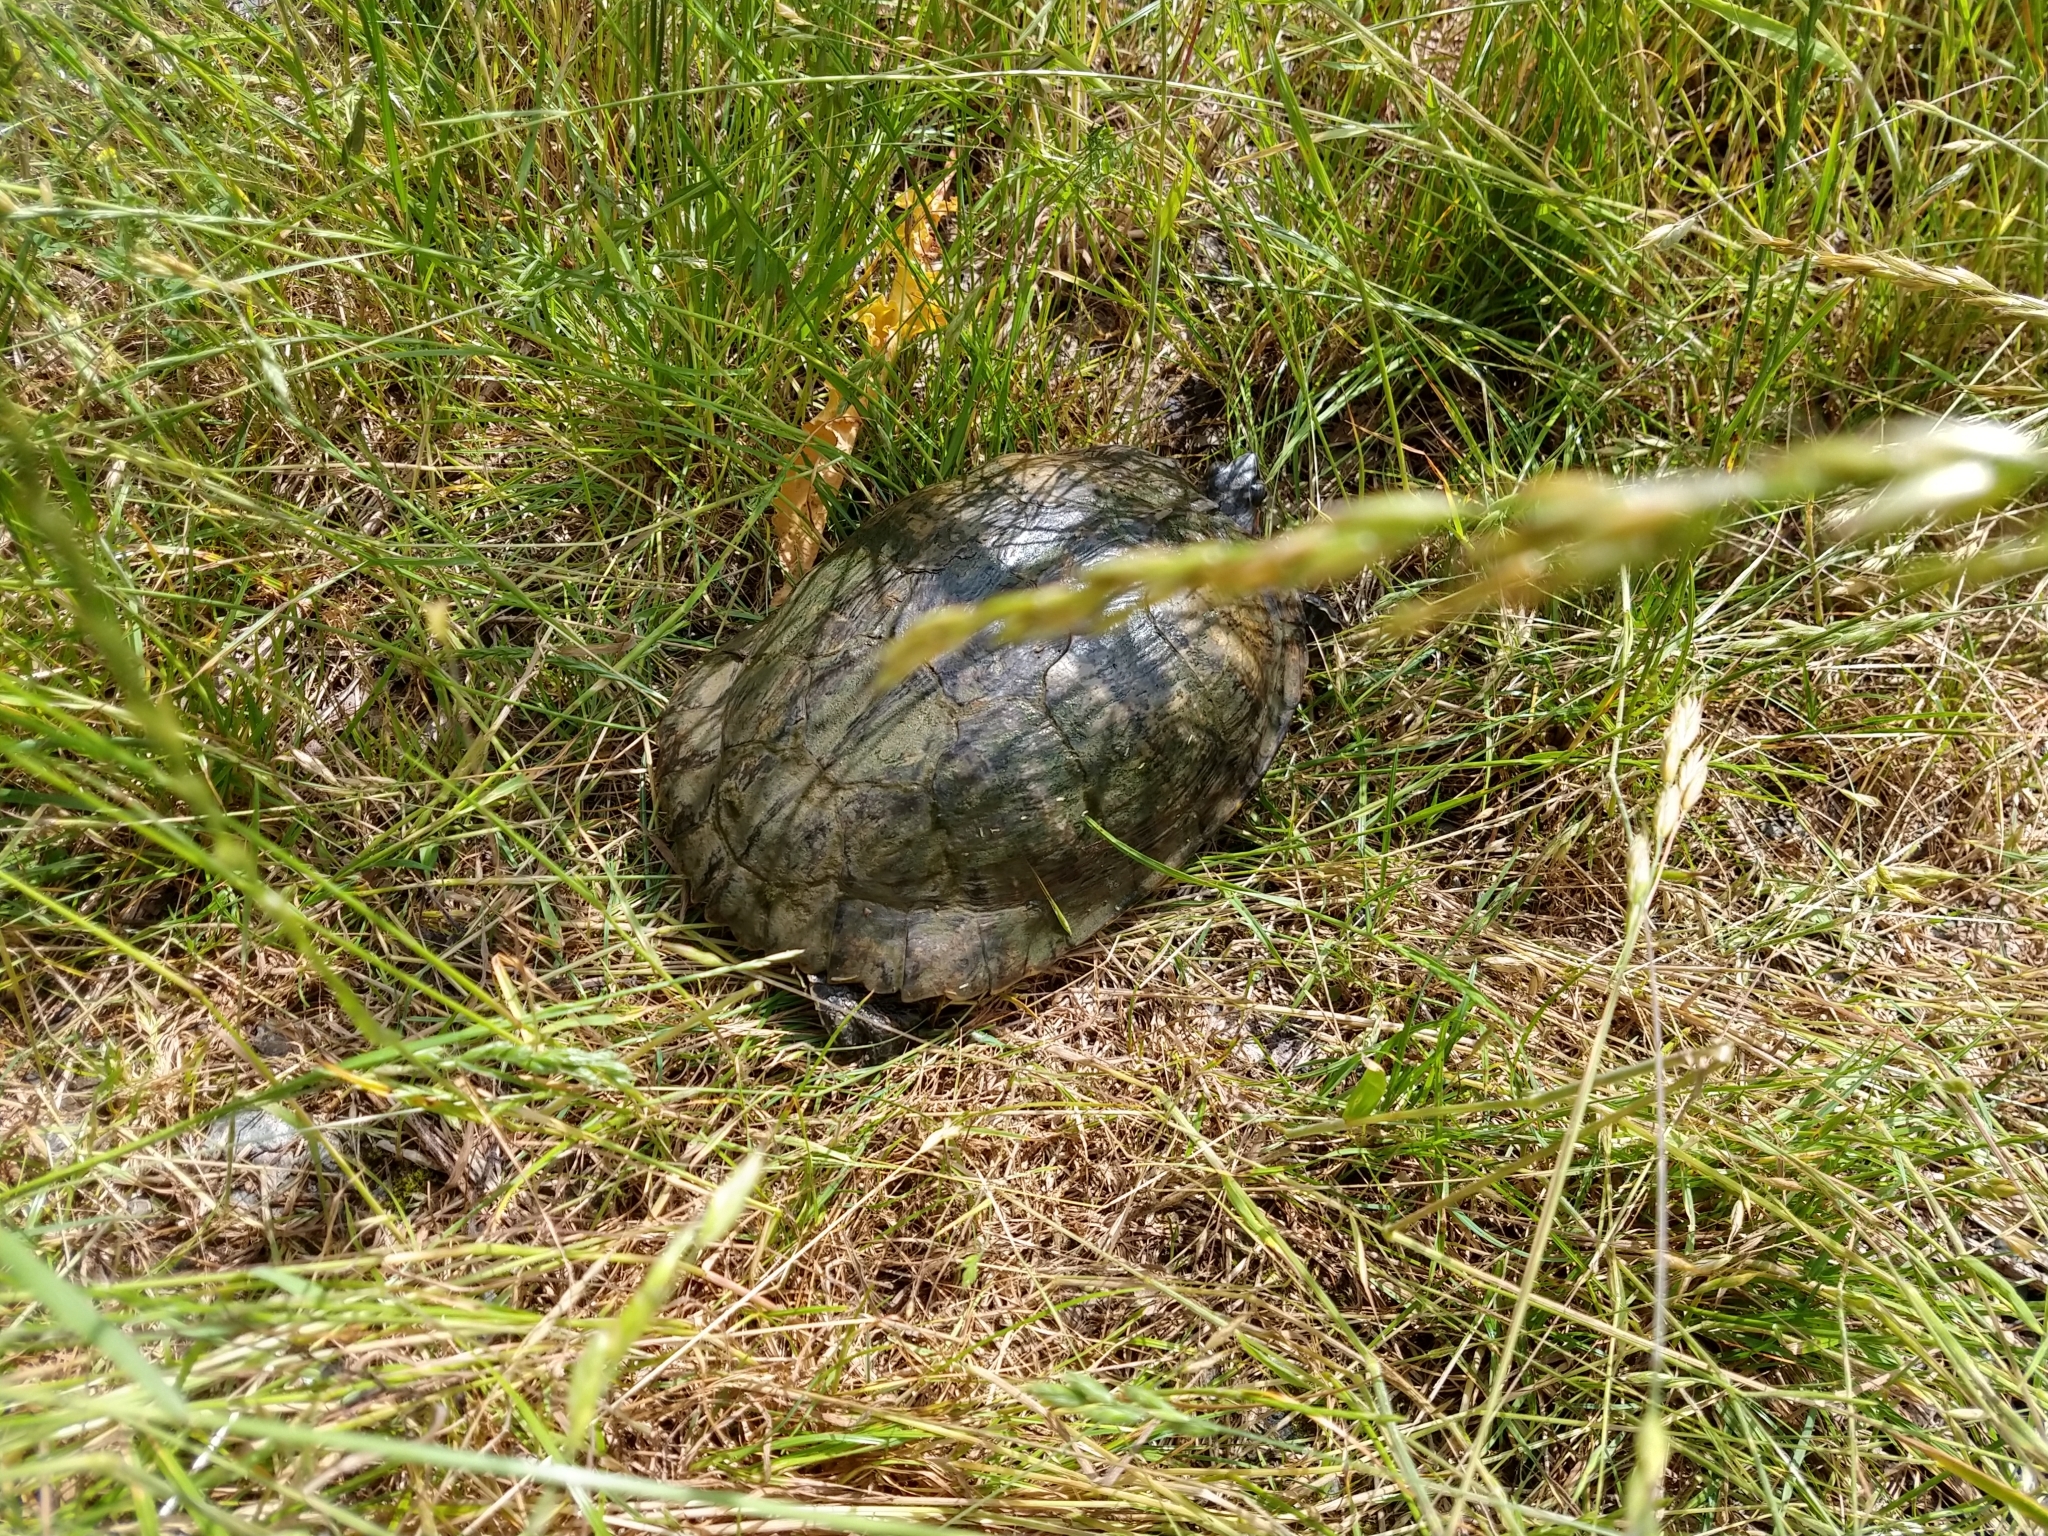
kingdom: Animalia
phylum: Chordata
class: Testudines
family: Emydidae
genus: Trachemys
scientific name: Trachemys scripta
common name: Slider
